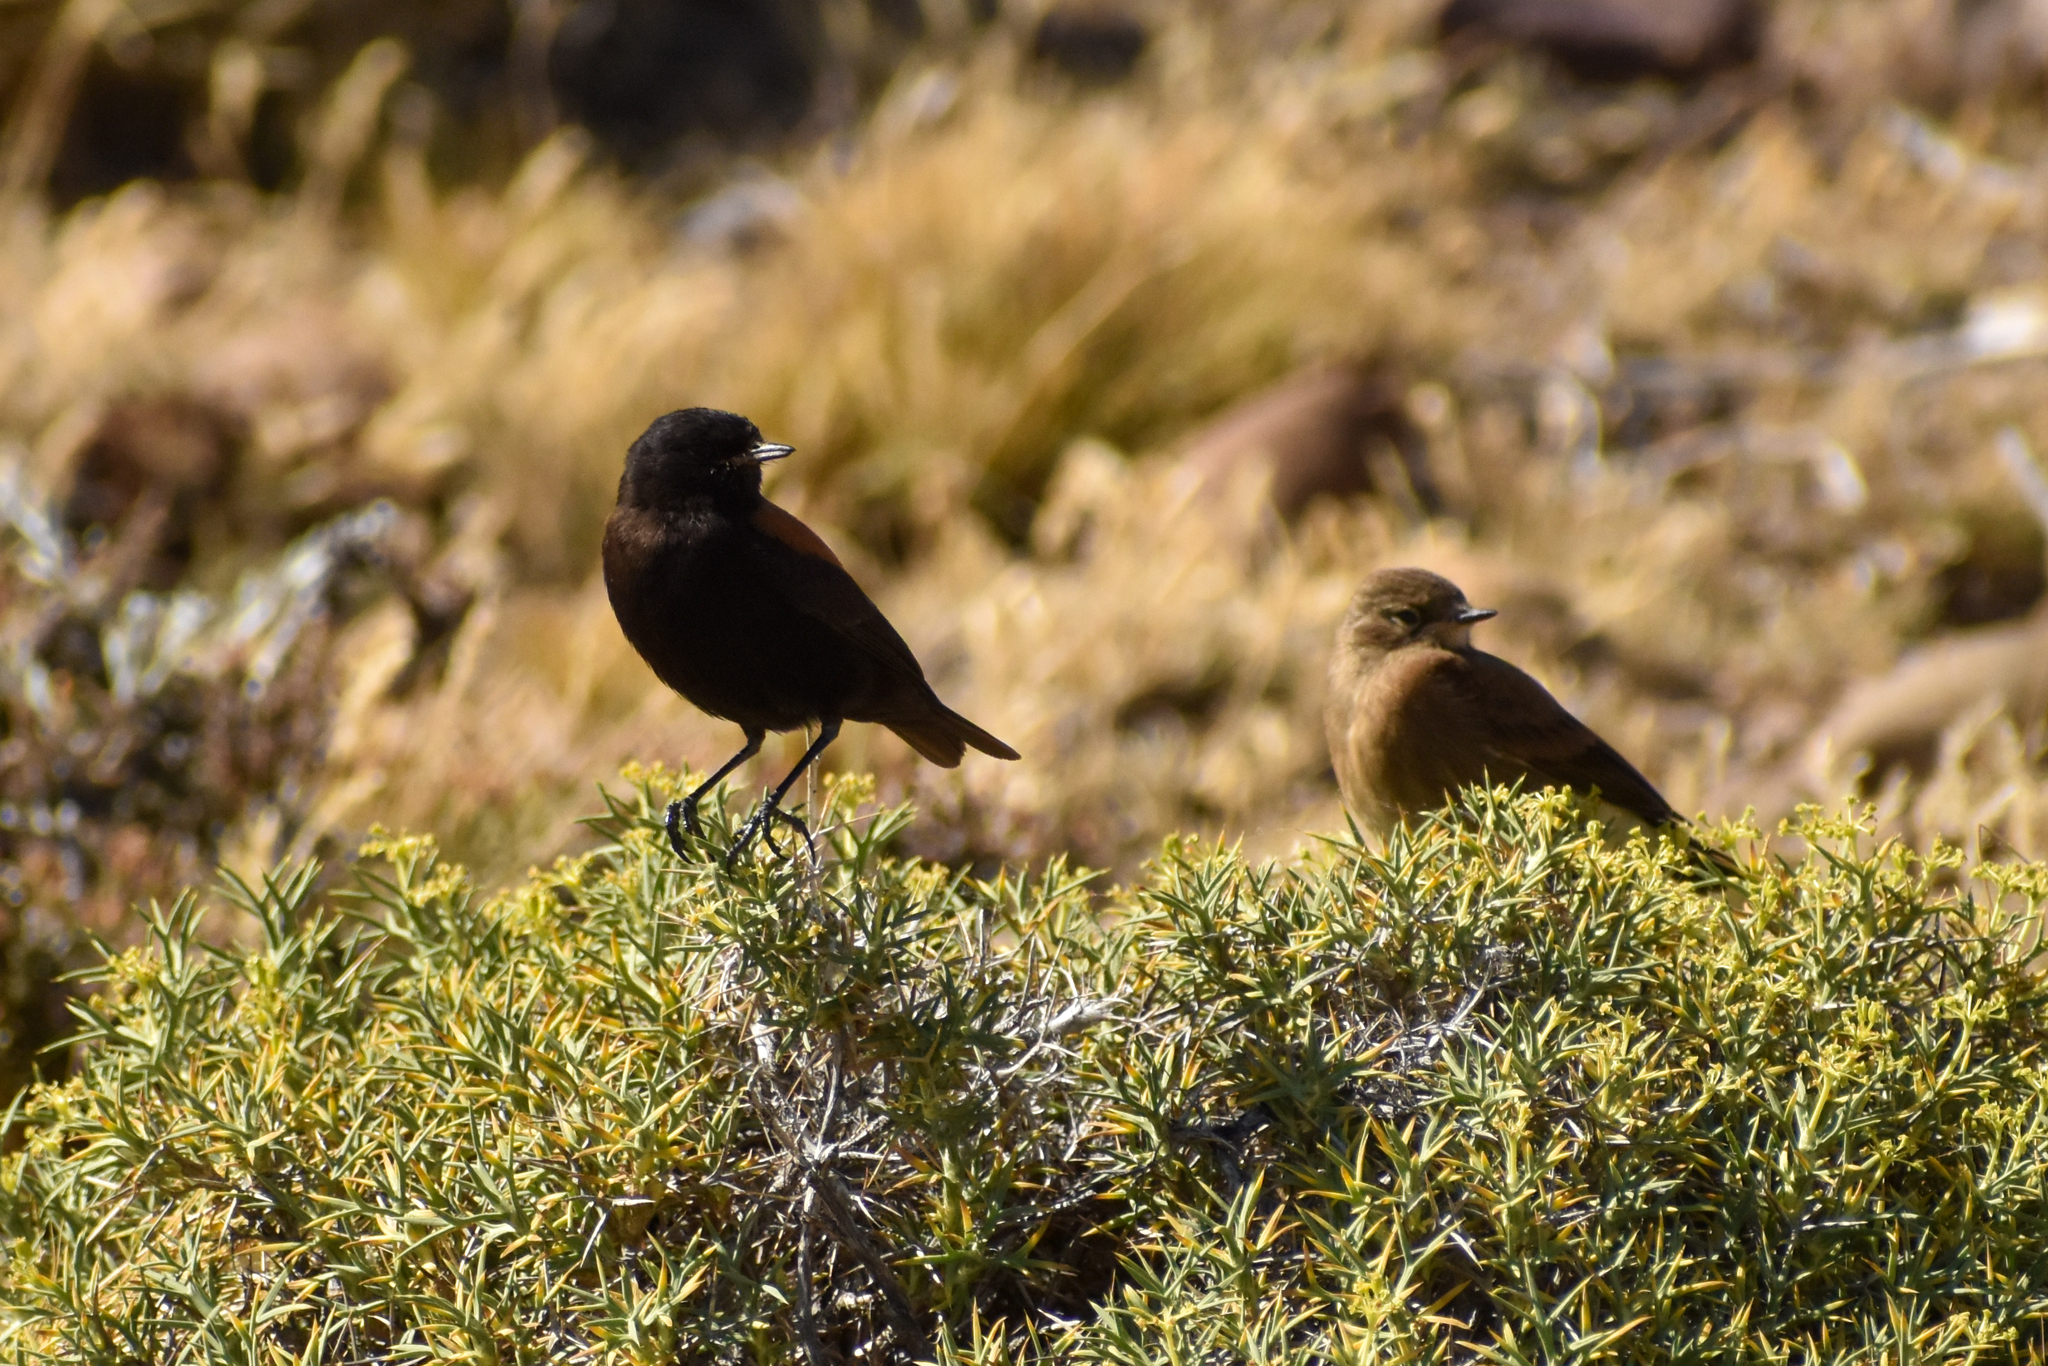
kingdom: Animalia
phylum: Chordata
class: Aves
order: Passeriformes
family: Tyrannidae
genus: Lessonia
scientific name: Lessonia rufa
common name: Austral negrito
